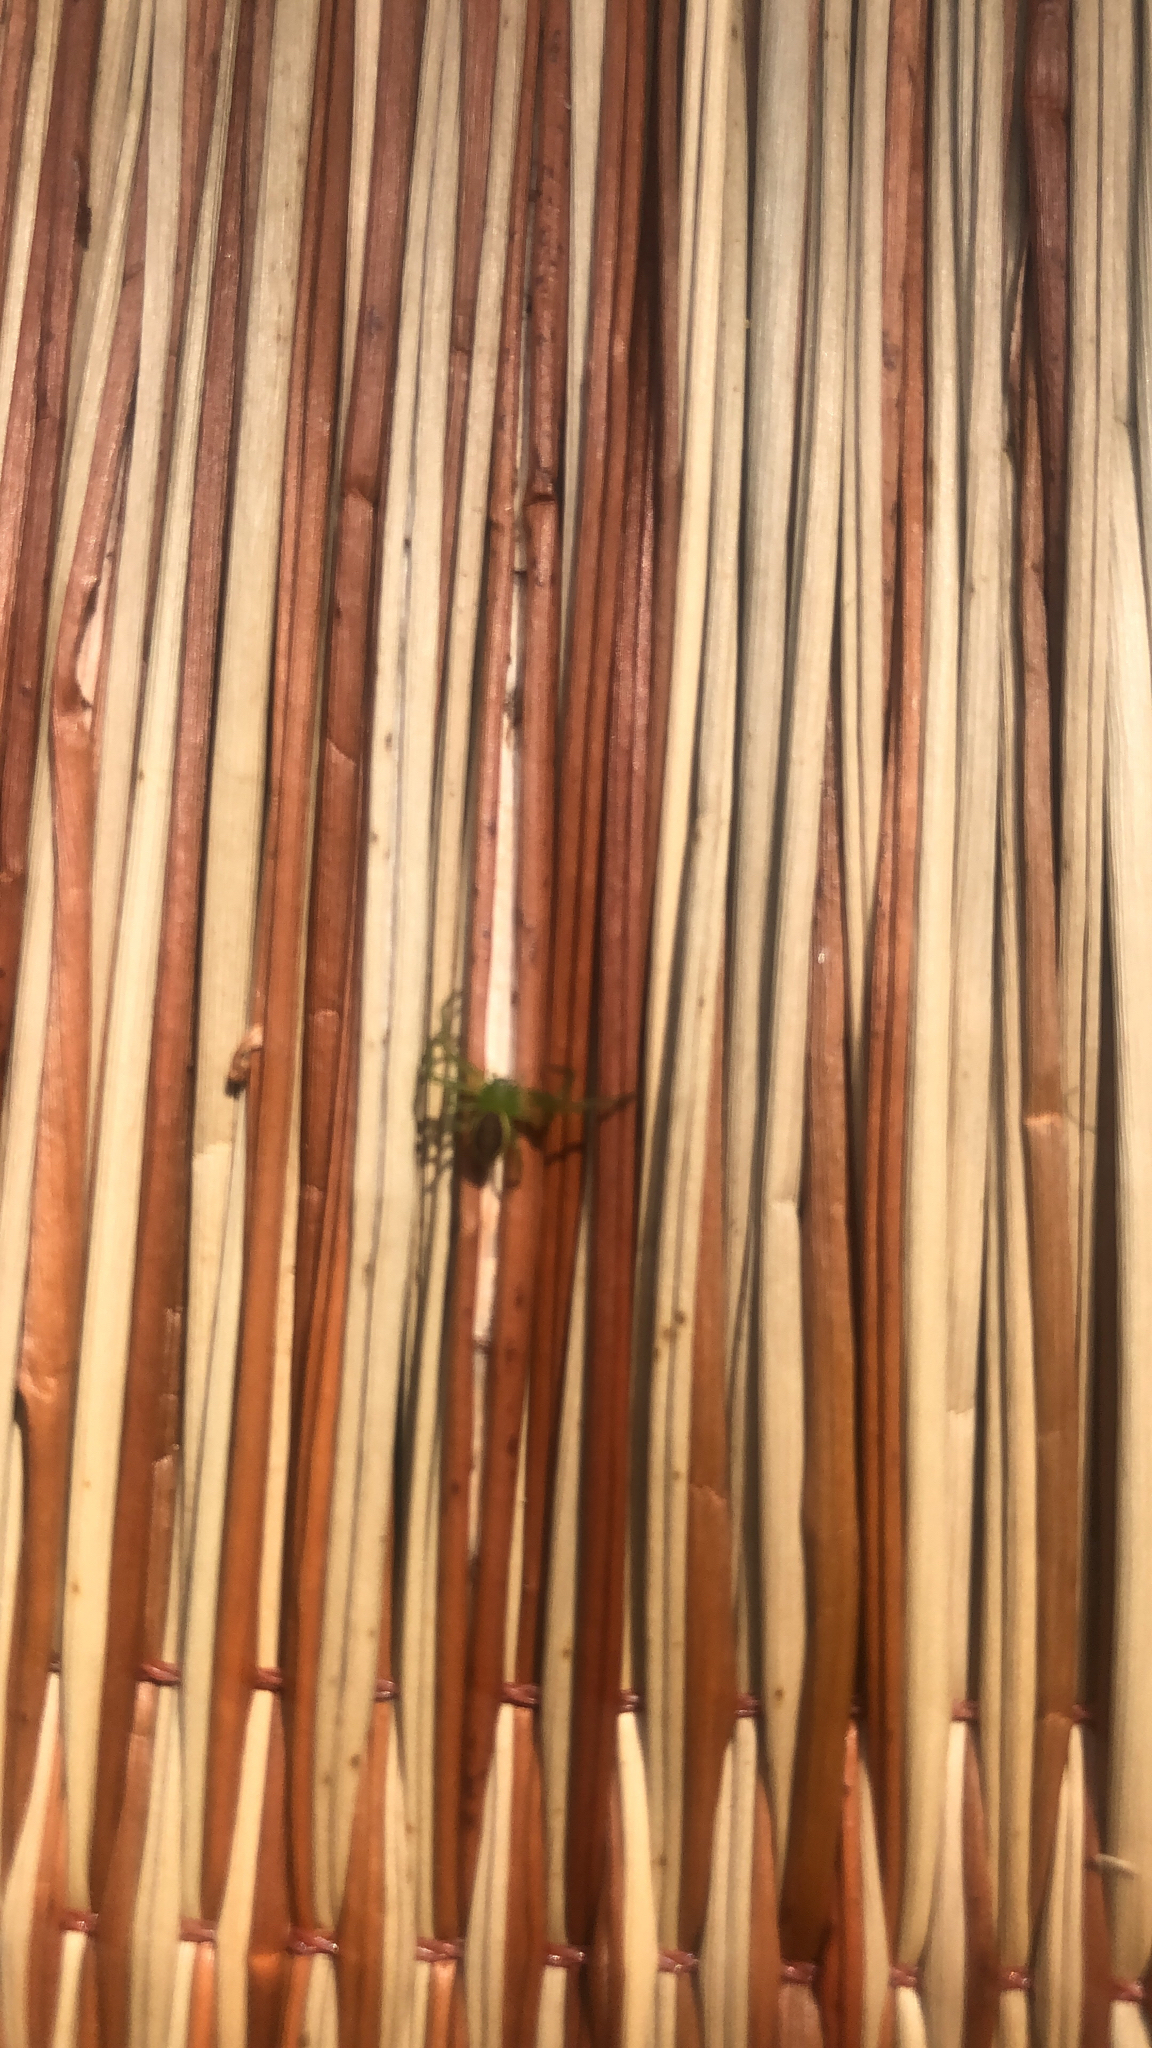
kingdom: Animalia
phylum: Arthropoda
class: Arachnida
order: Araneae
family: Thomisidae
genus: Diaea
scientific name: Diaea dorsata
